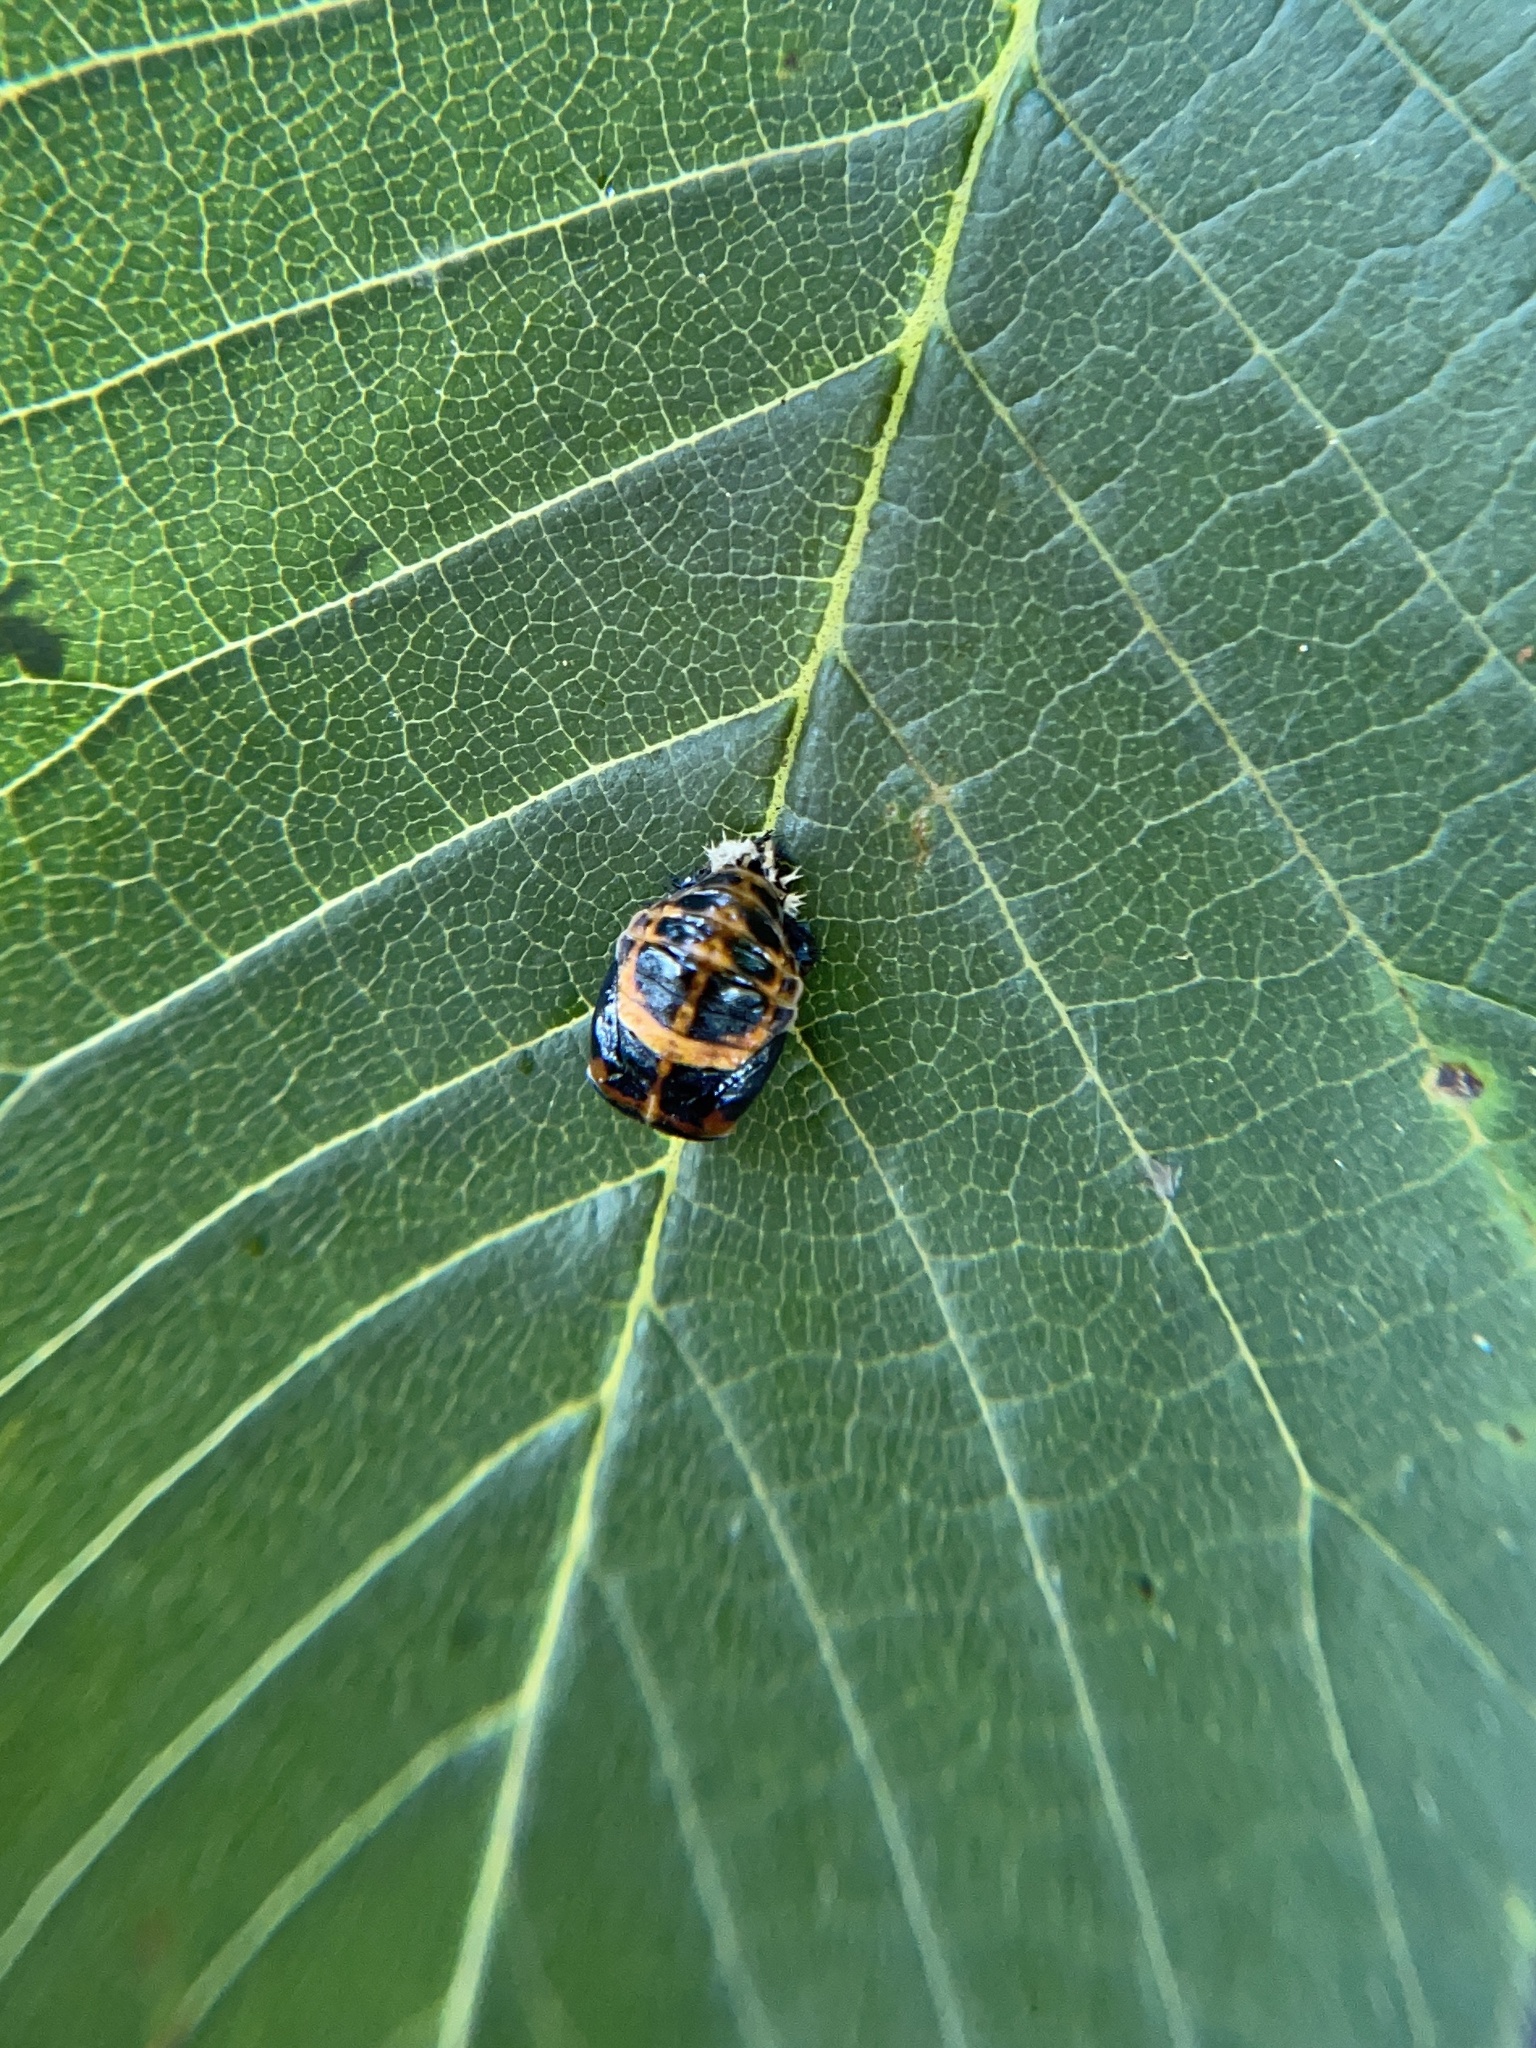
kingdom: Animalia
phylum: Arthropoda
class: Insecta
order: Coleoptera
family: Coccinellidae
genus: Harmonia
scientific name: Harmonia axyridis
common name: Harlequin ladybird
